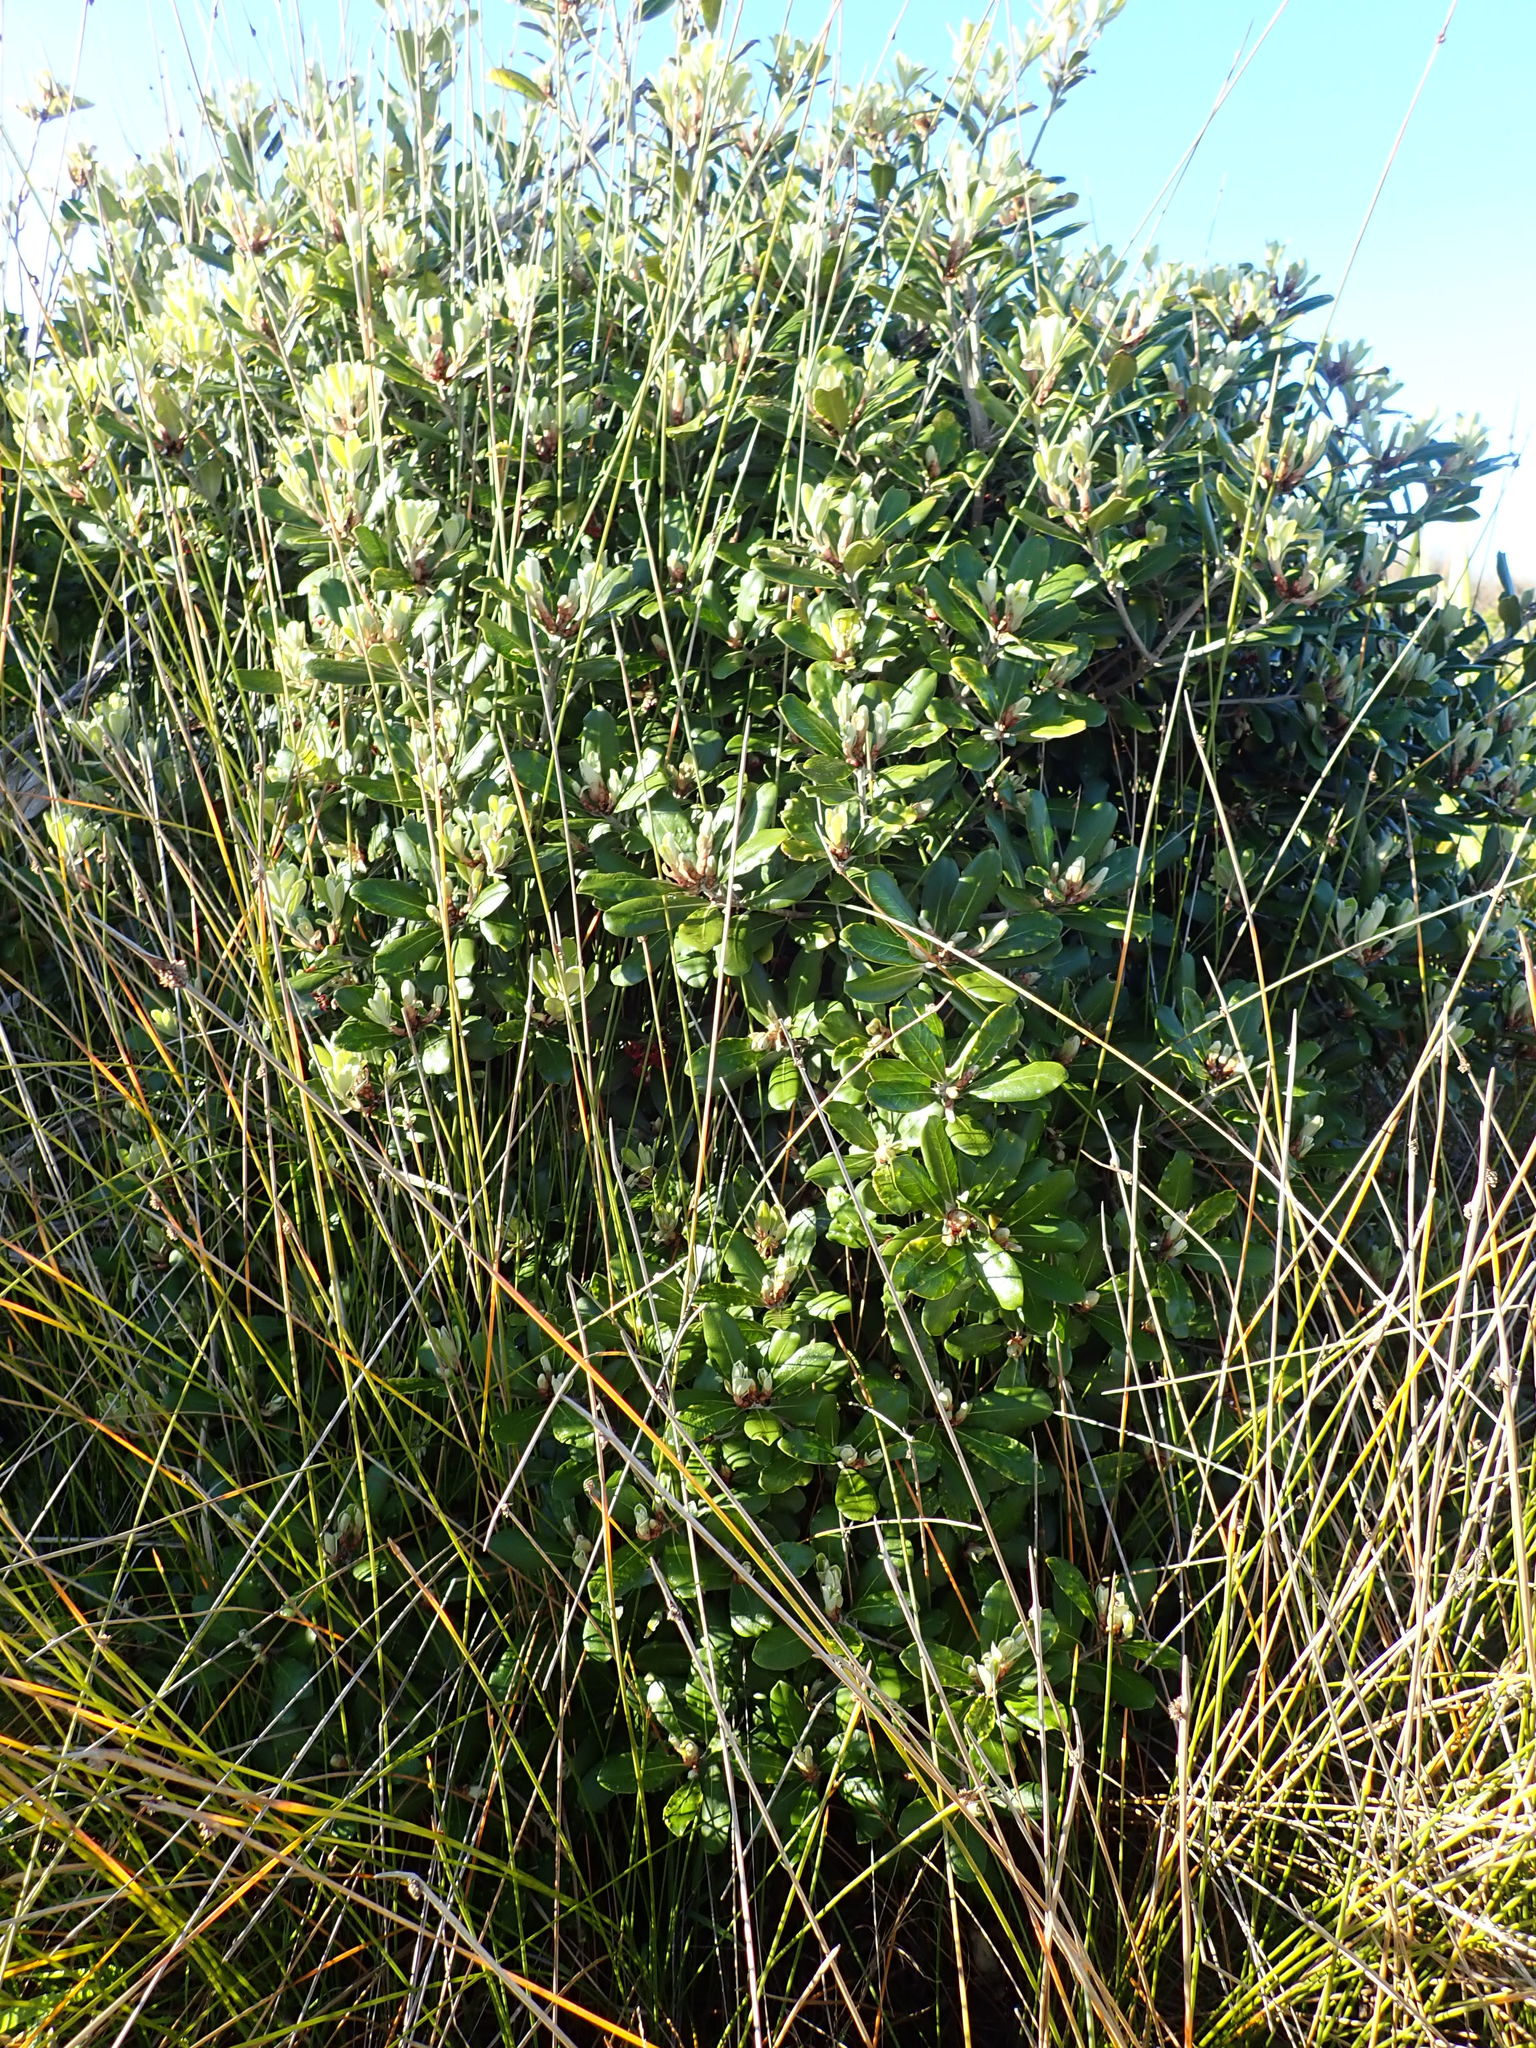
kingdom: Plantae
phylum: Tracheophyta
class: Magnoliopsida
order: Apiales
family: Pittosporaceae
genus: Pittosporum
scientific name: Pittosporum crassifolium
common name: Karo
